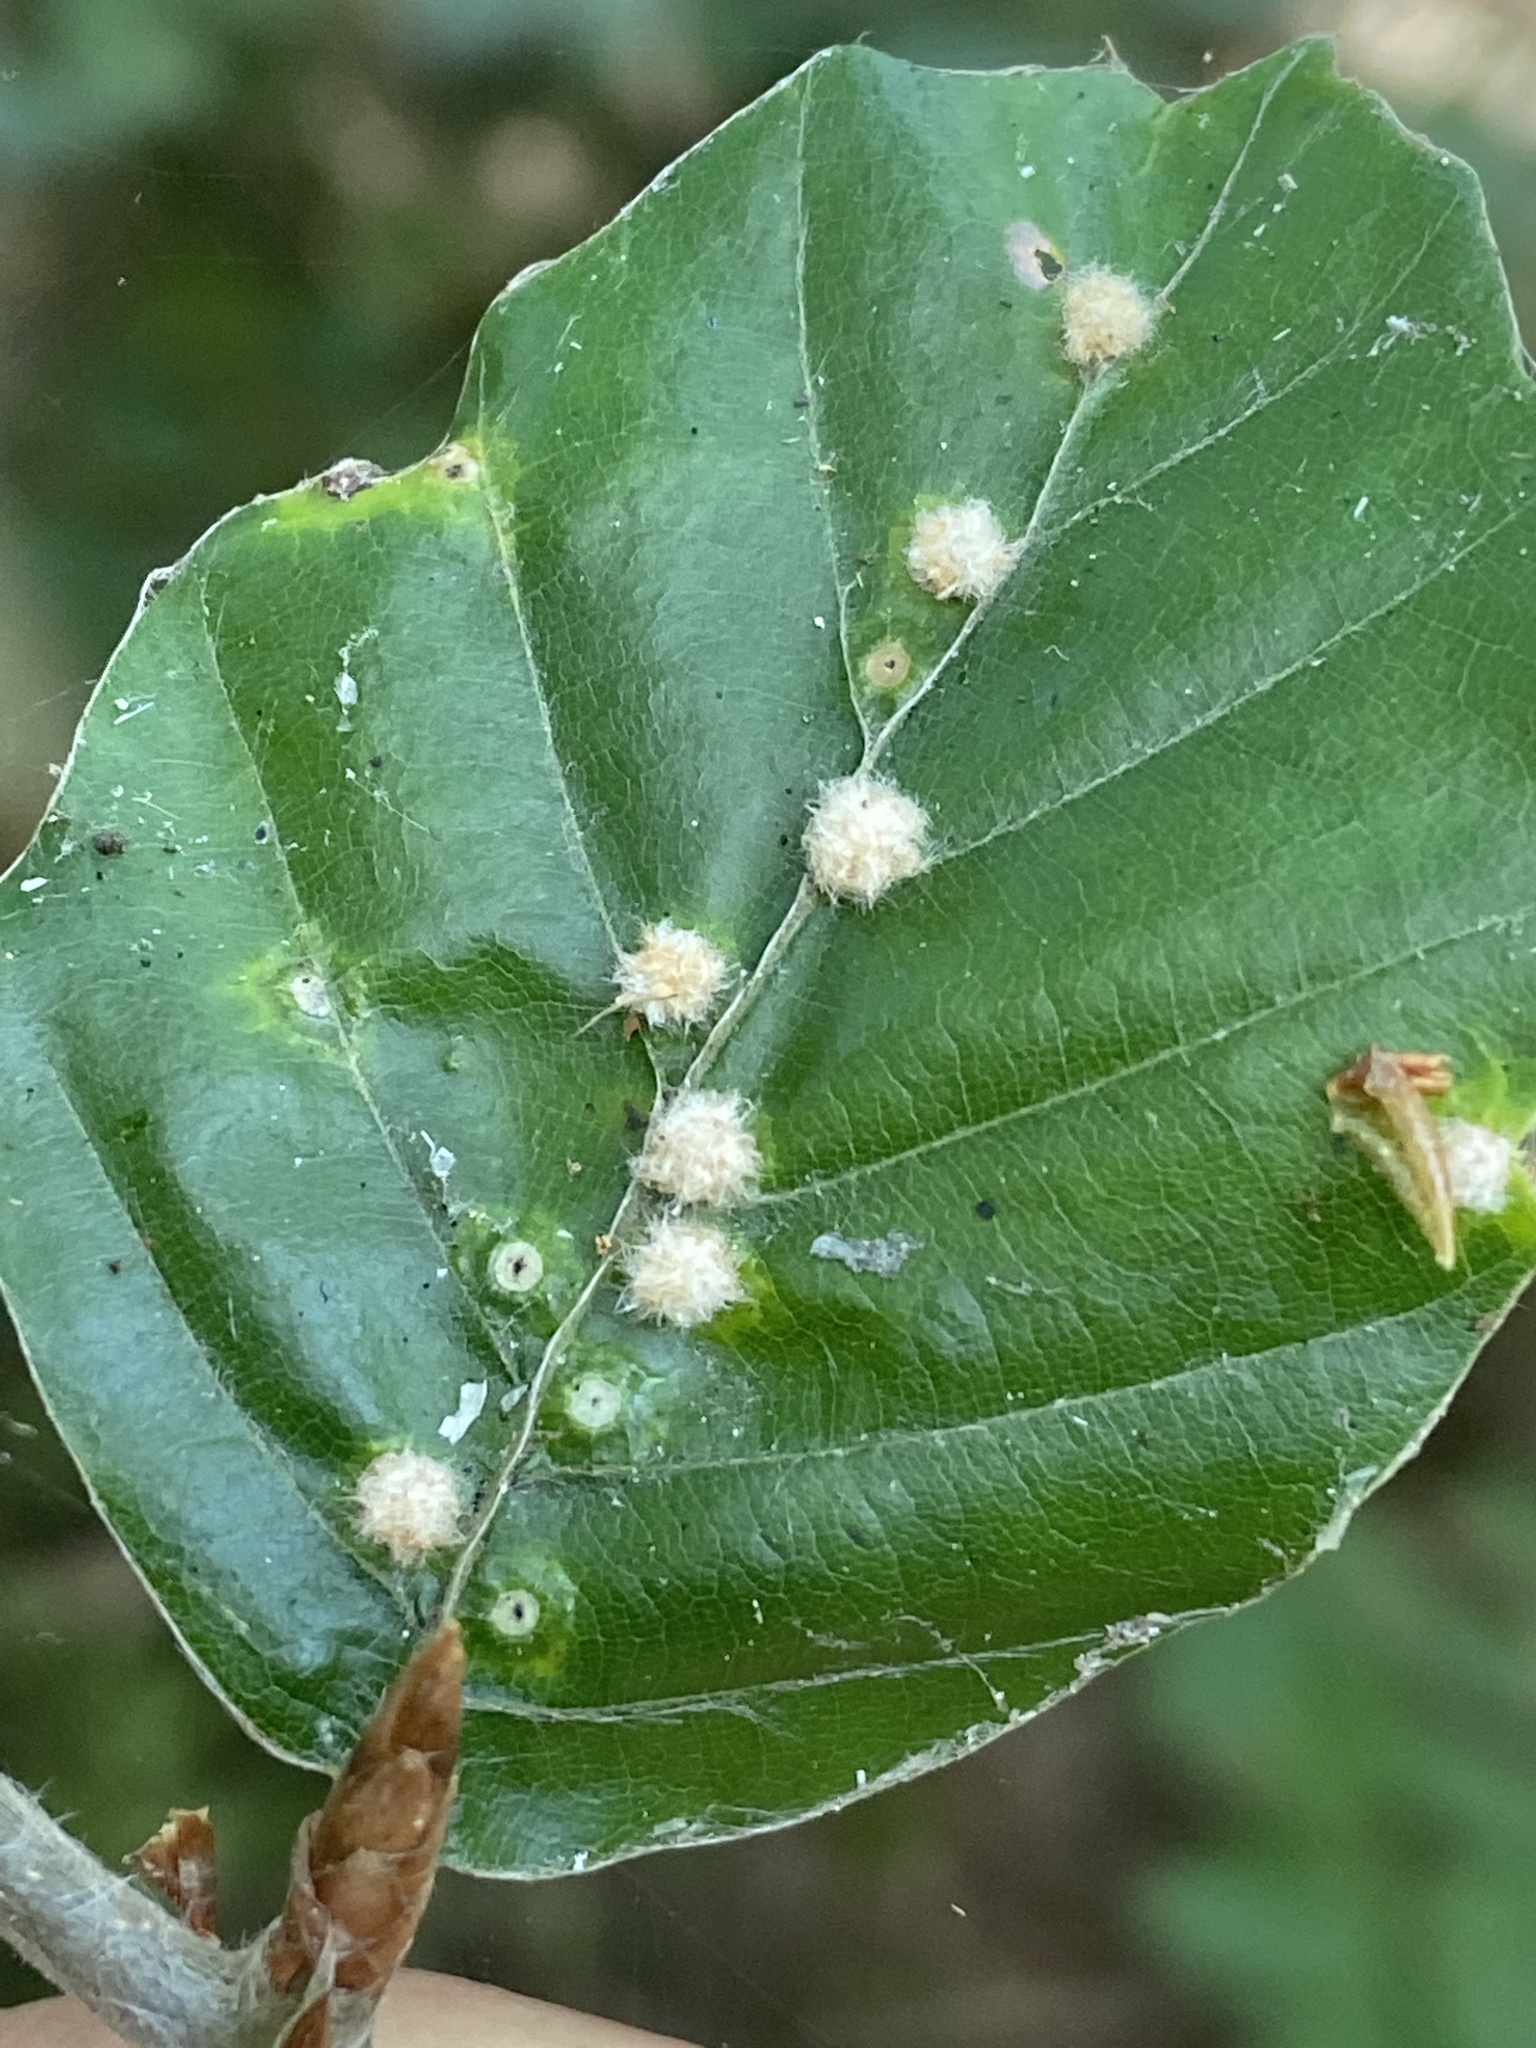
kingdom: Animalia
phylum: Arthropoda
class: Insecta
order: Diptera
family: Cecidomyiidae
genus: Hartigiola
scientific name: Hartigiola annulipes
